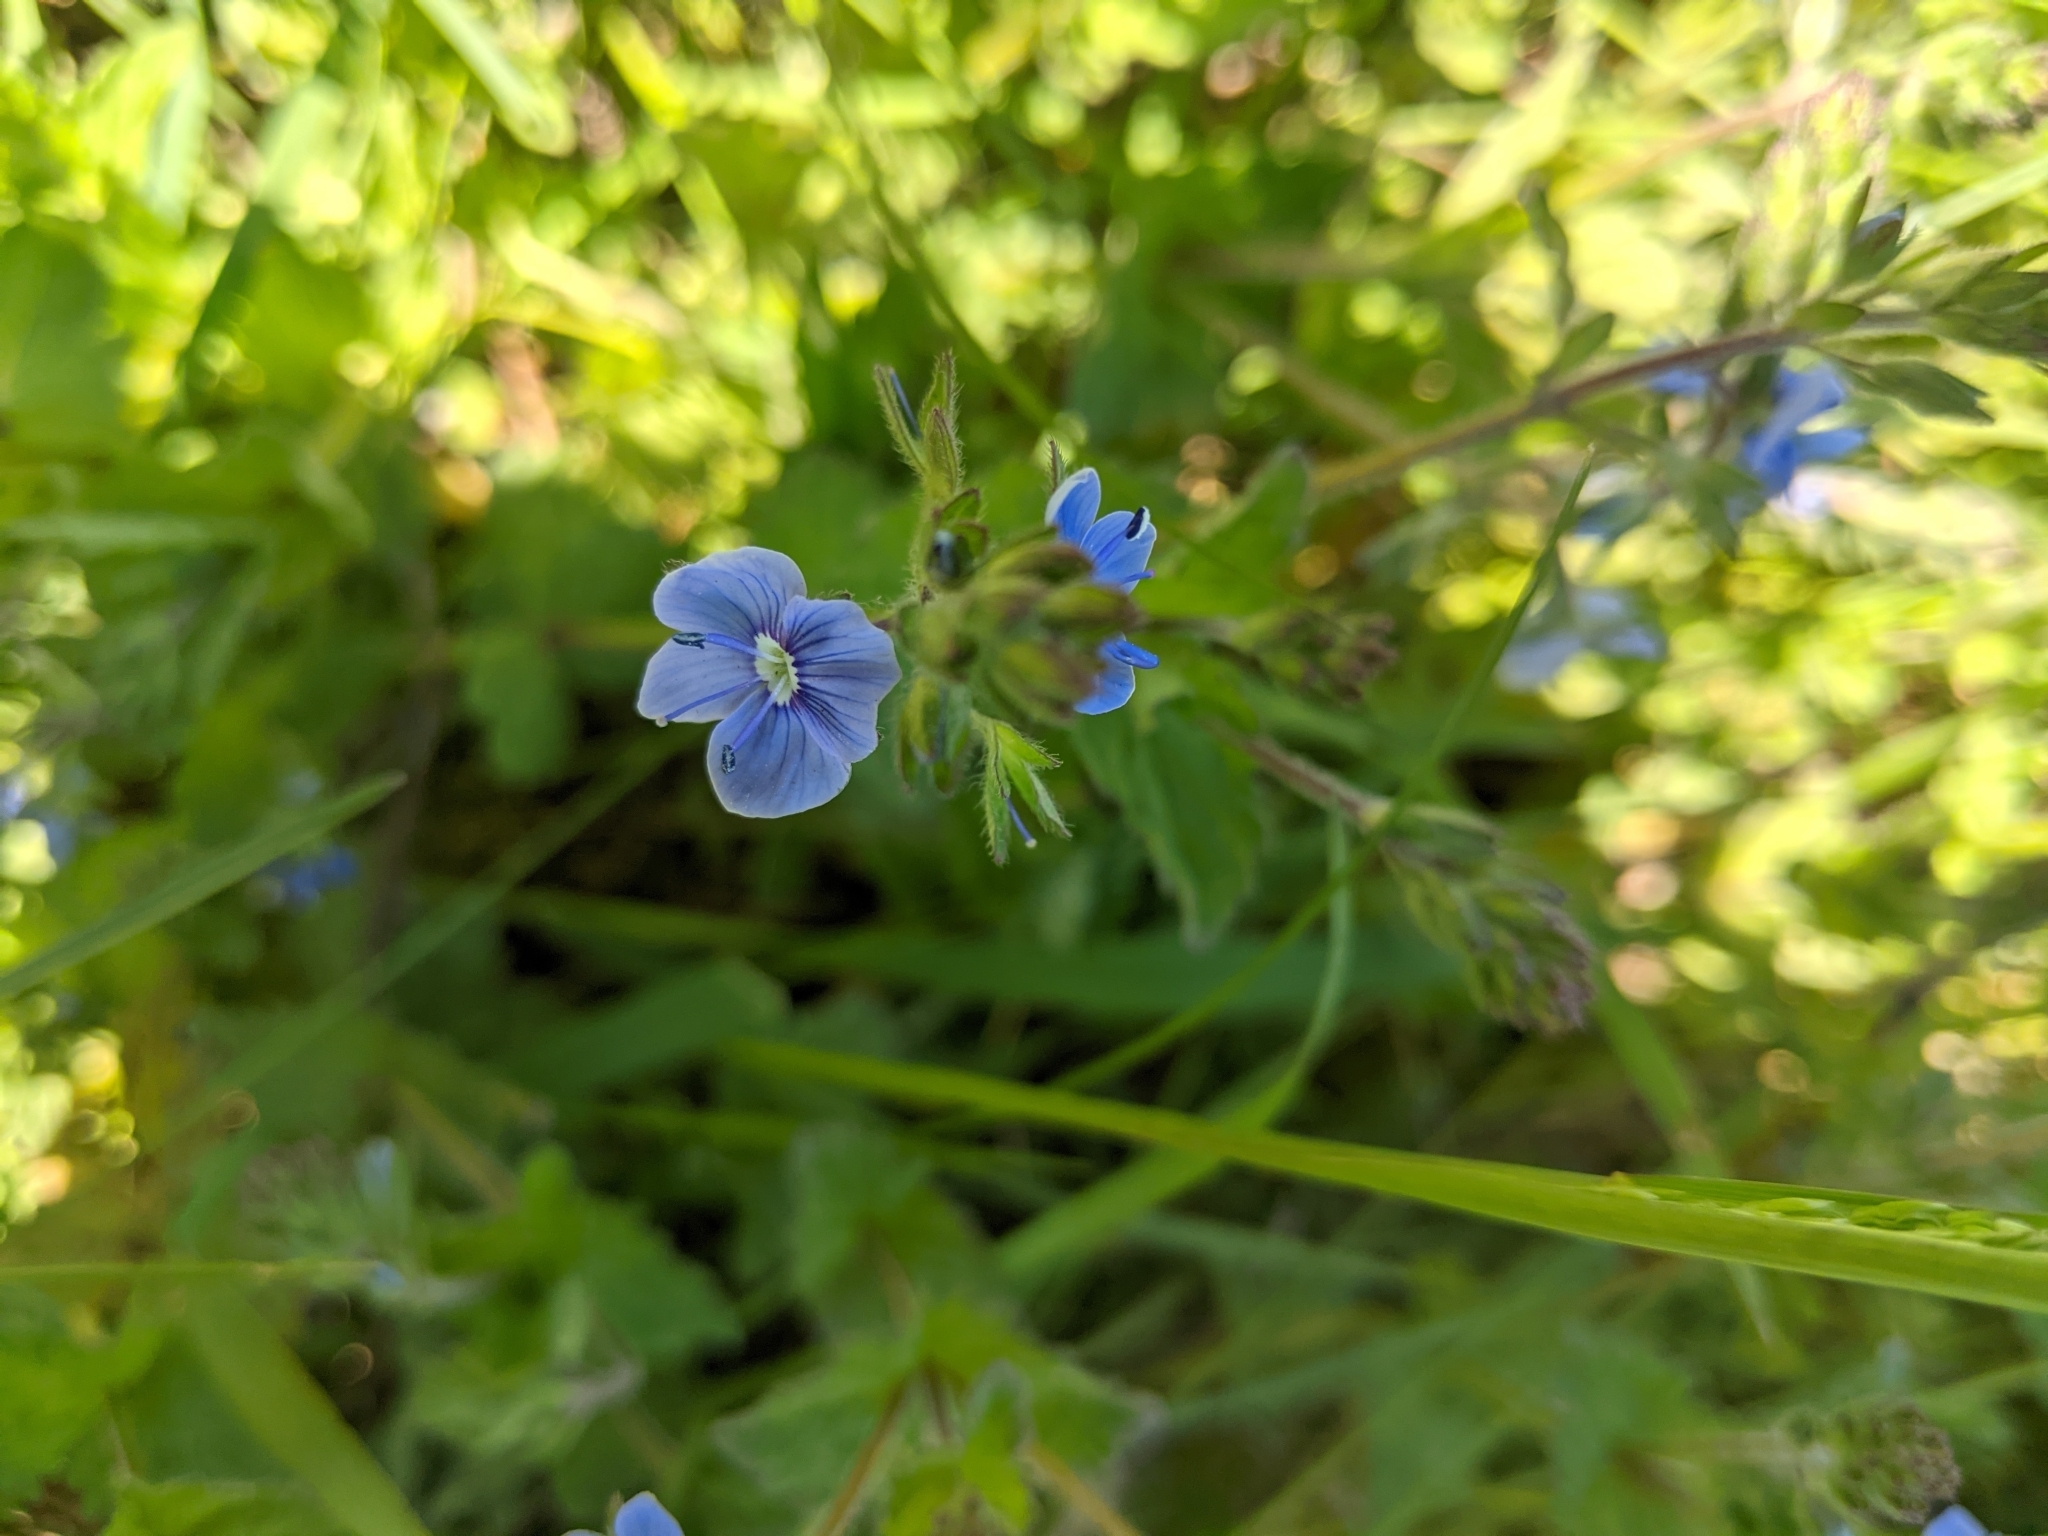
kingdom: Plantae
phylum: Tracheophyta
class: Magnoliopsida
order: Lamiales
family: Plantaginaceae
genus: Veronica
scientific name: Veronica chamaedrys
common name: Germander speedwell
